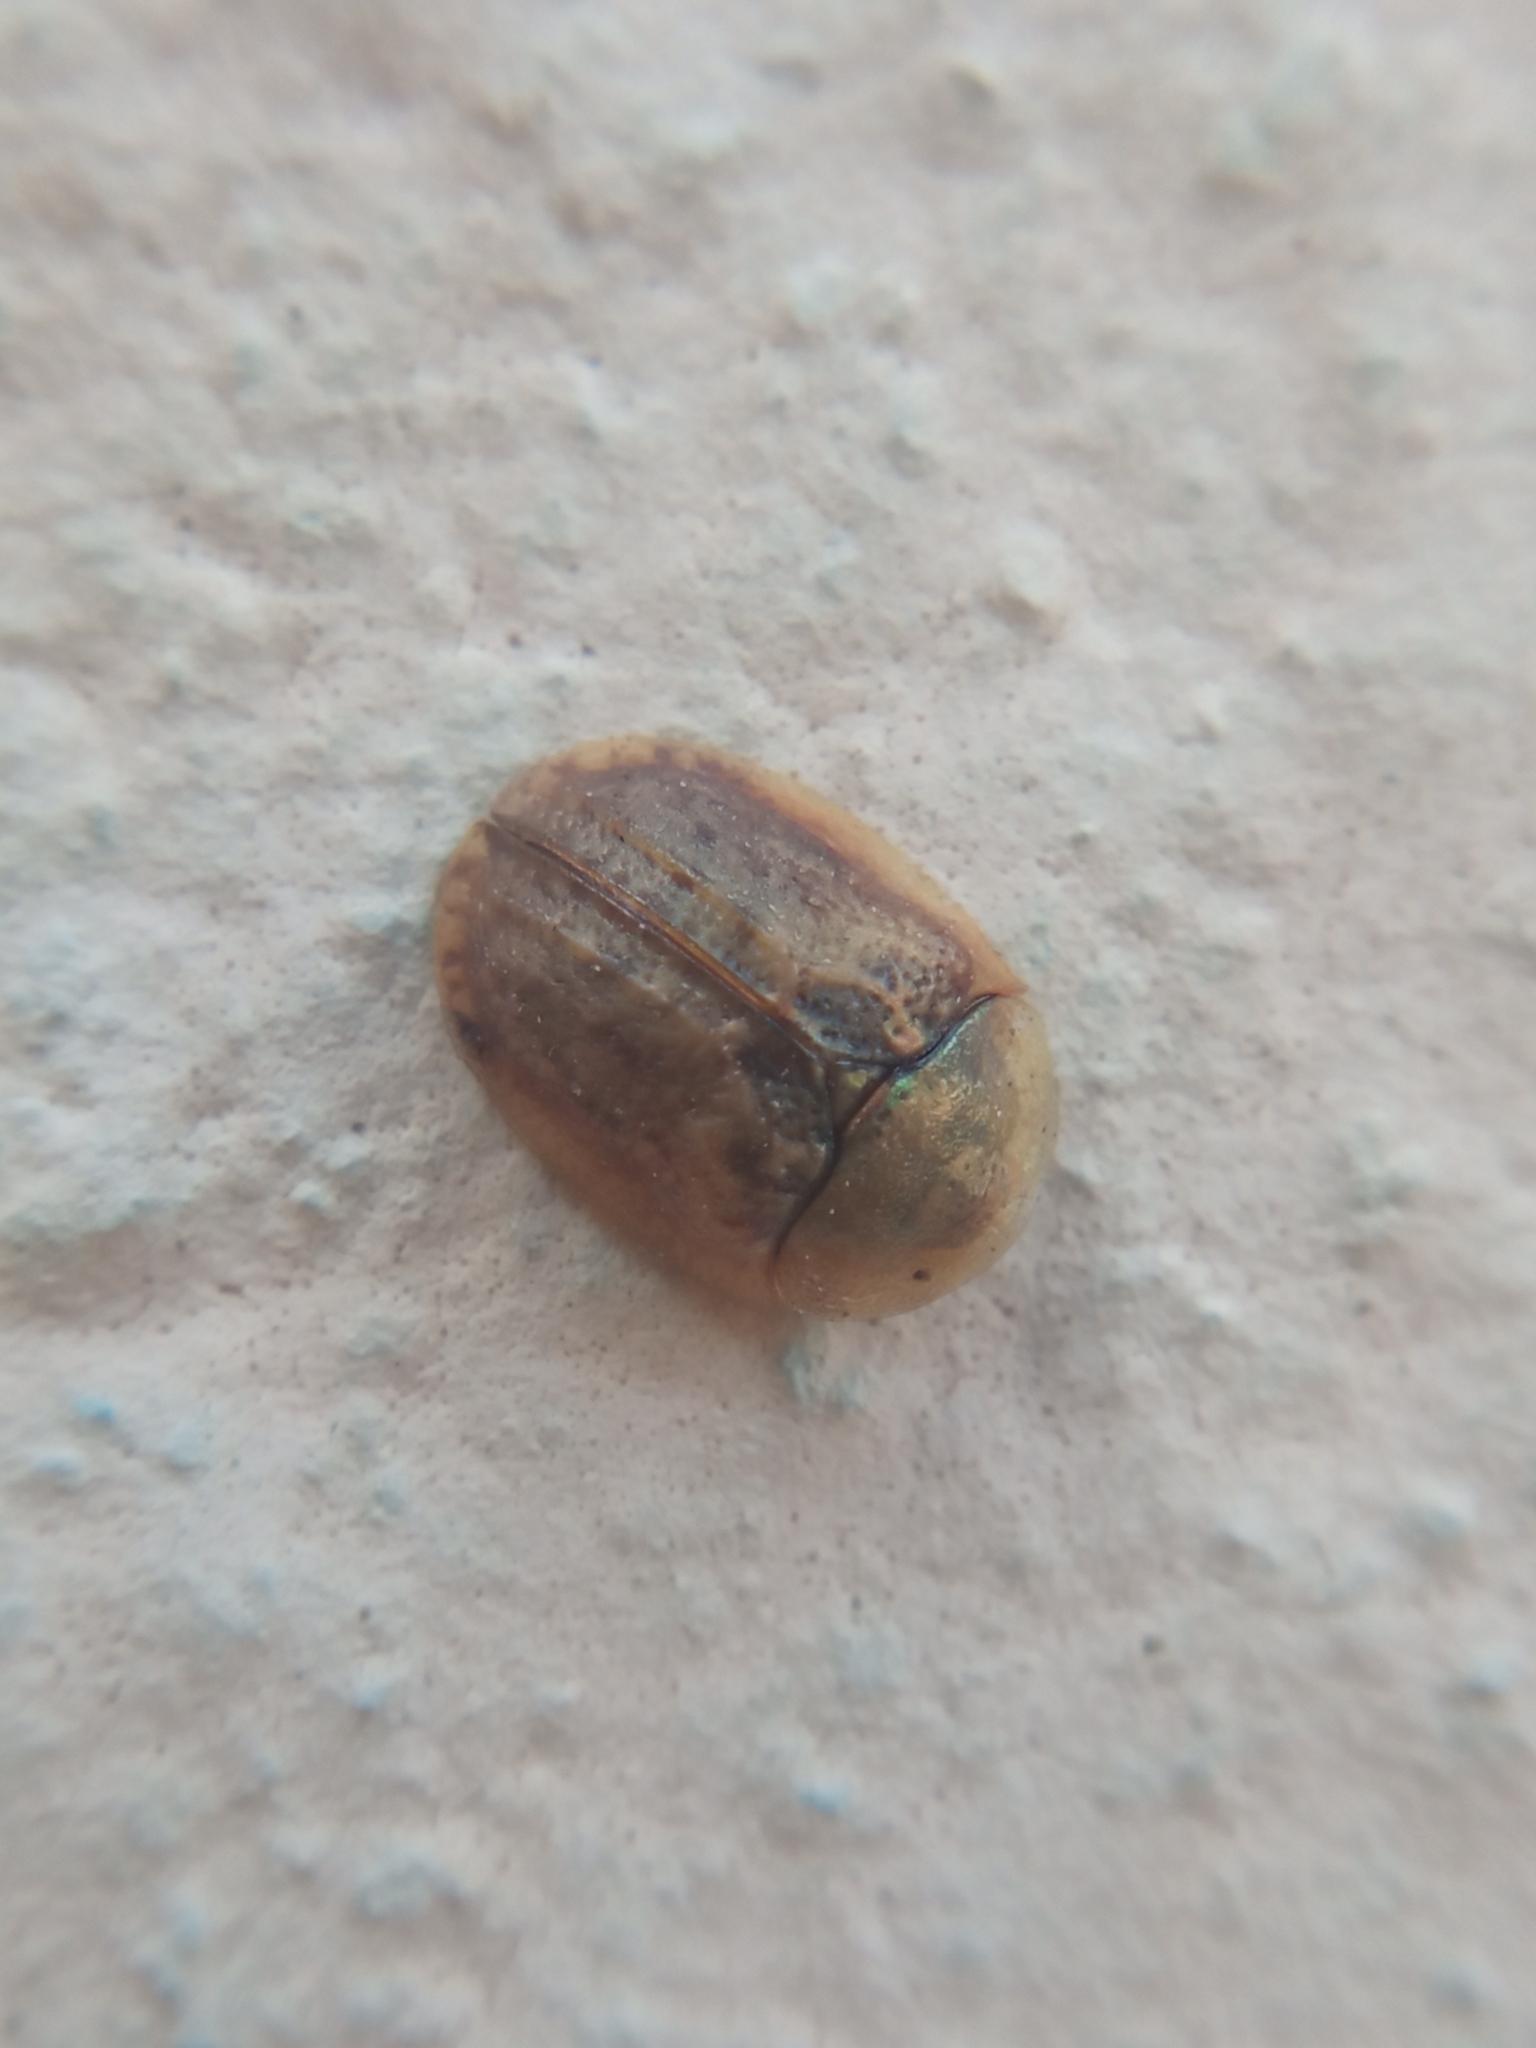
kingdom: Animalia
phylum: Arthropoda
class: Insecta
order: Coleoptera
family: Chrysomelidae
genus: Hypocassida
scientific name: Hypocassida subferruginea
